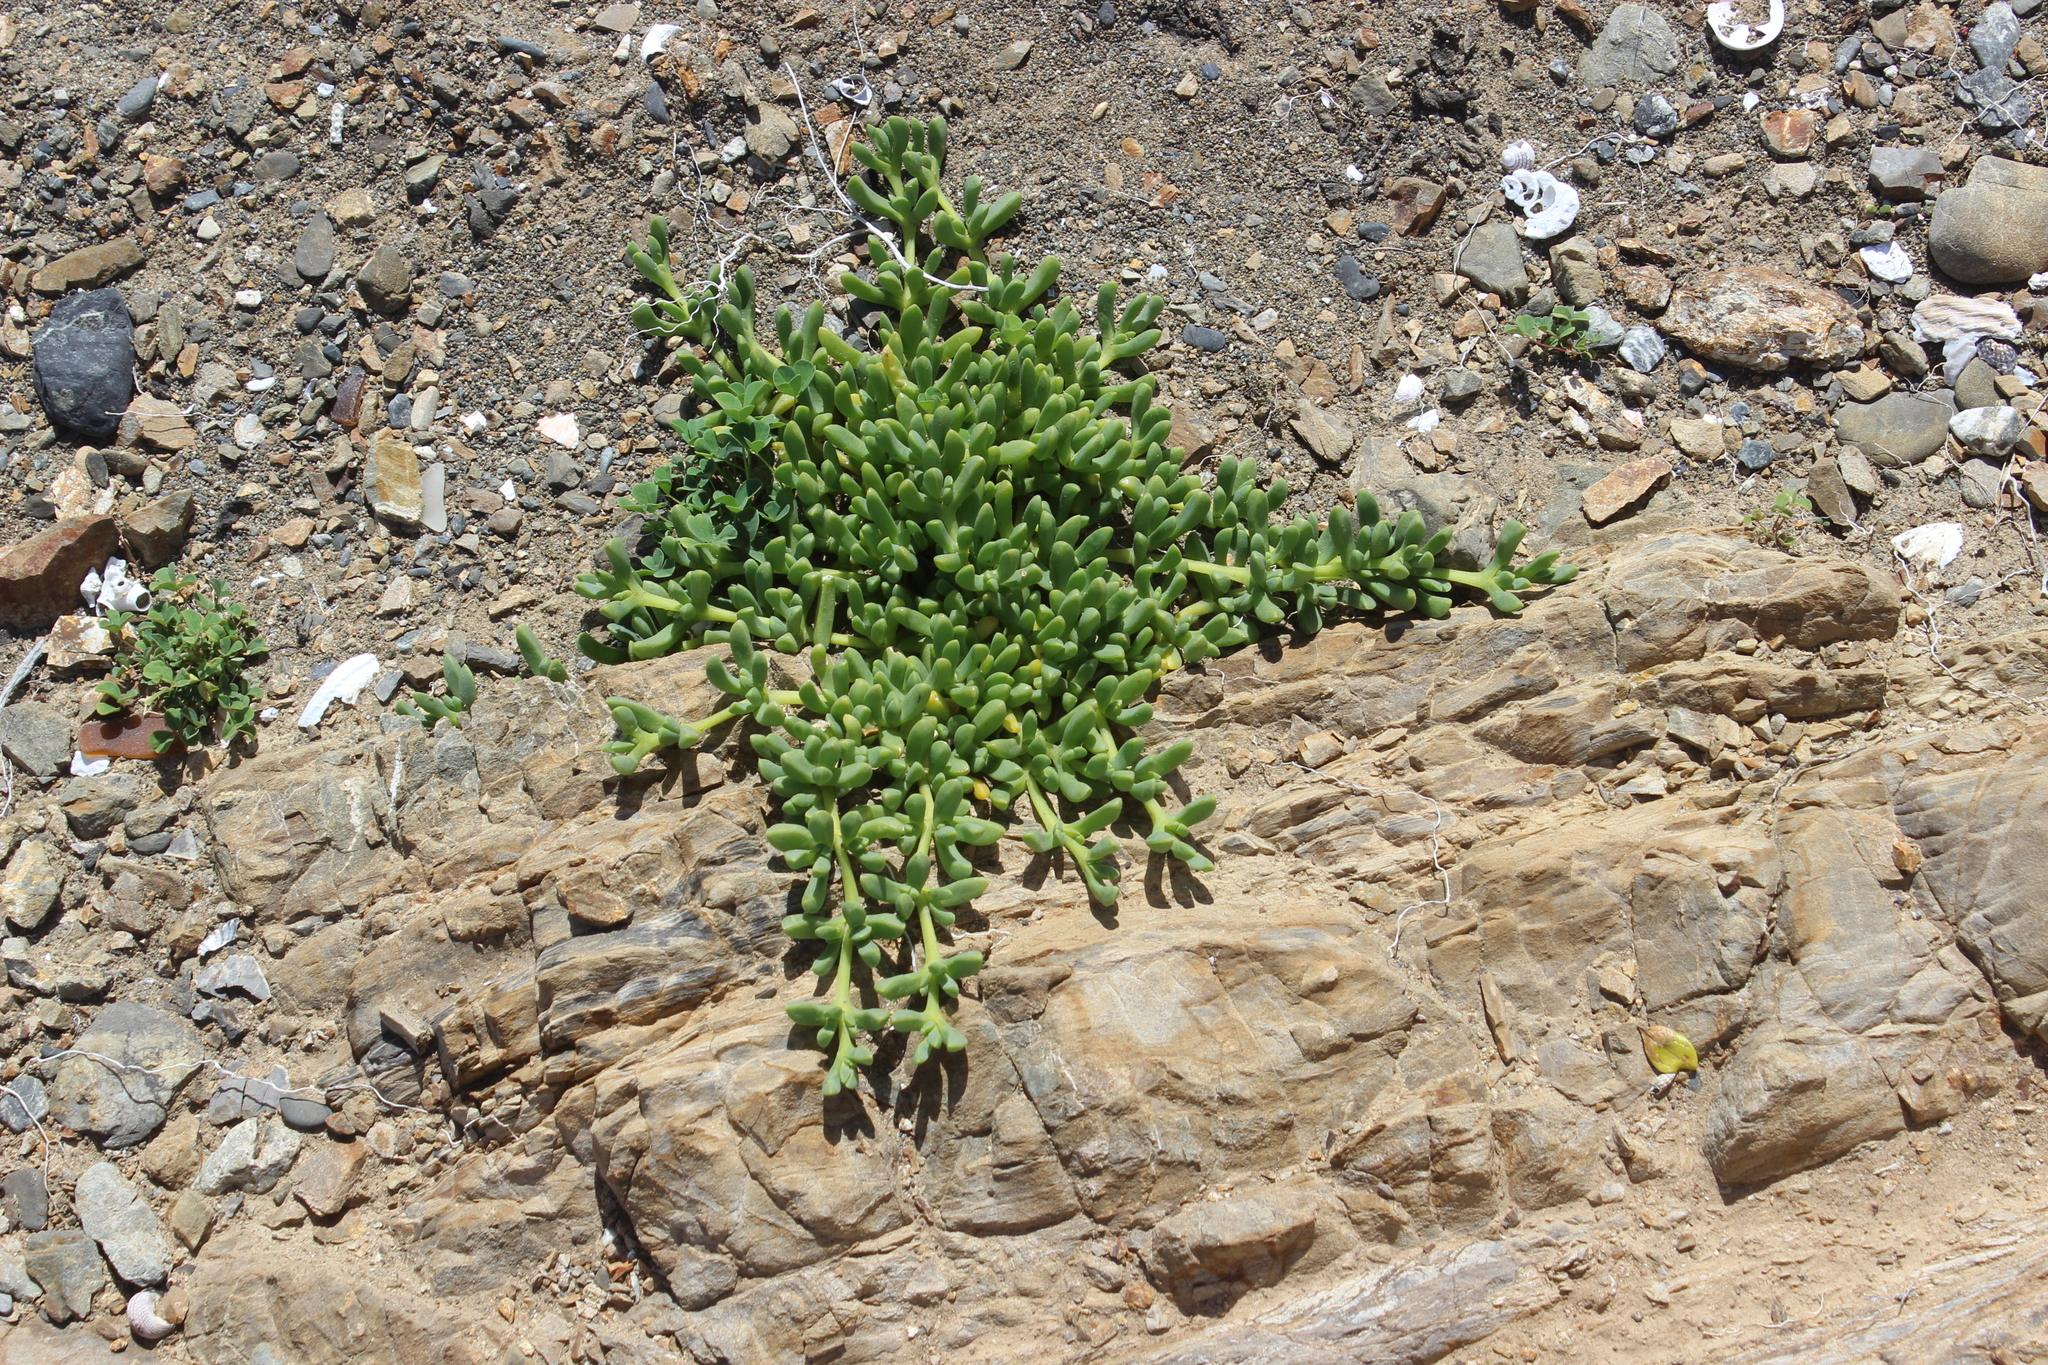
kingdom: Plantae
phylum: Tracheophyta
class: Magnoliopsida
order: Caryophyllales
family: Aizoaceae
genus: Disphyma
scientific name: Disphyma australe
